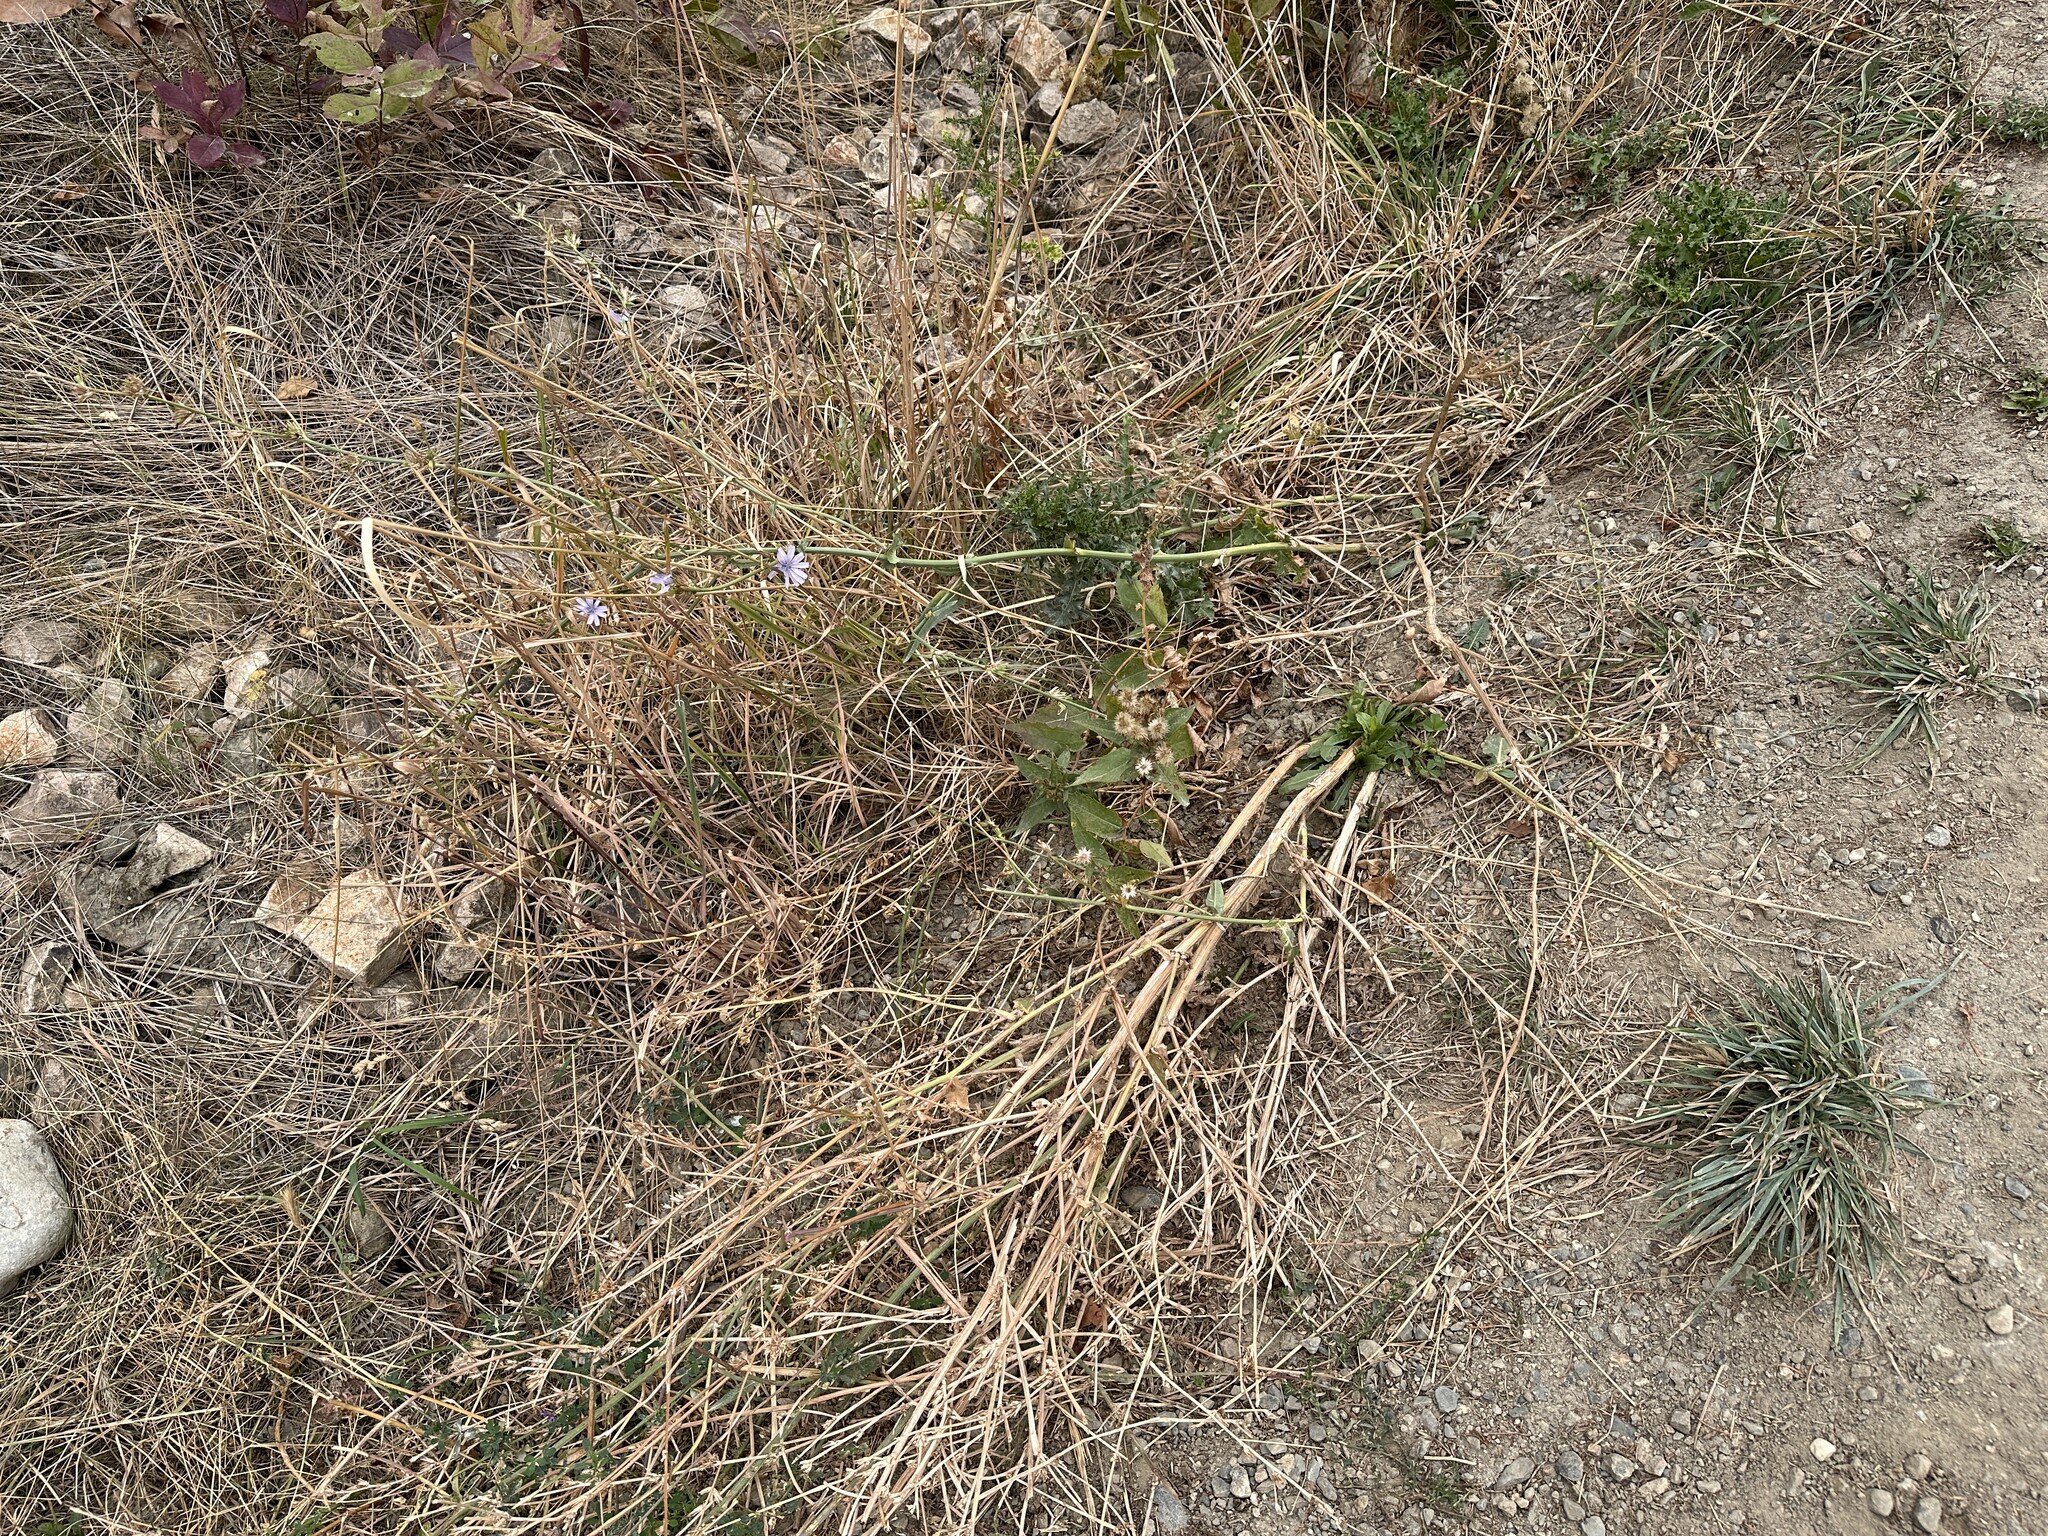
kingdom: Plantae
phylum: Tracheophyta
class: Magnoliopsida
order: Asterales
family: Asteraceae
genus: Cichorium
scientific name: Cichorium intybus
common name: Chicory
